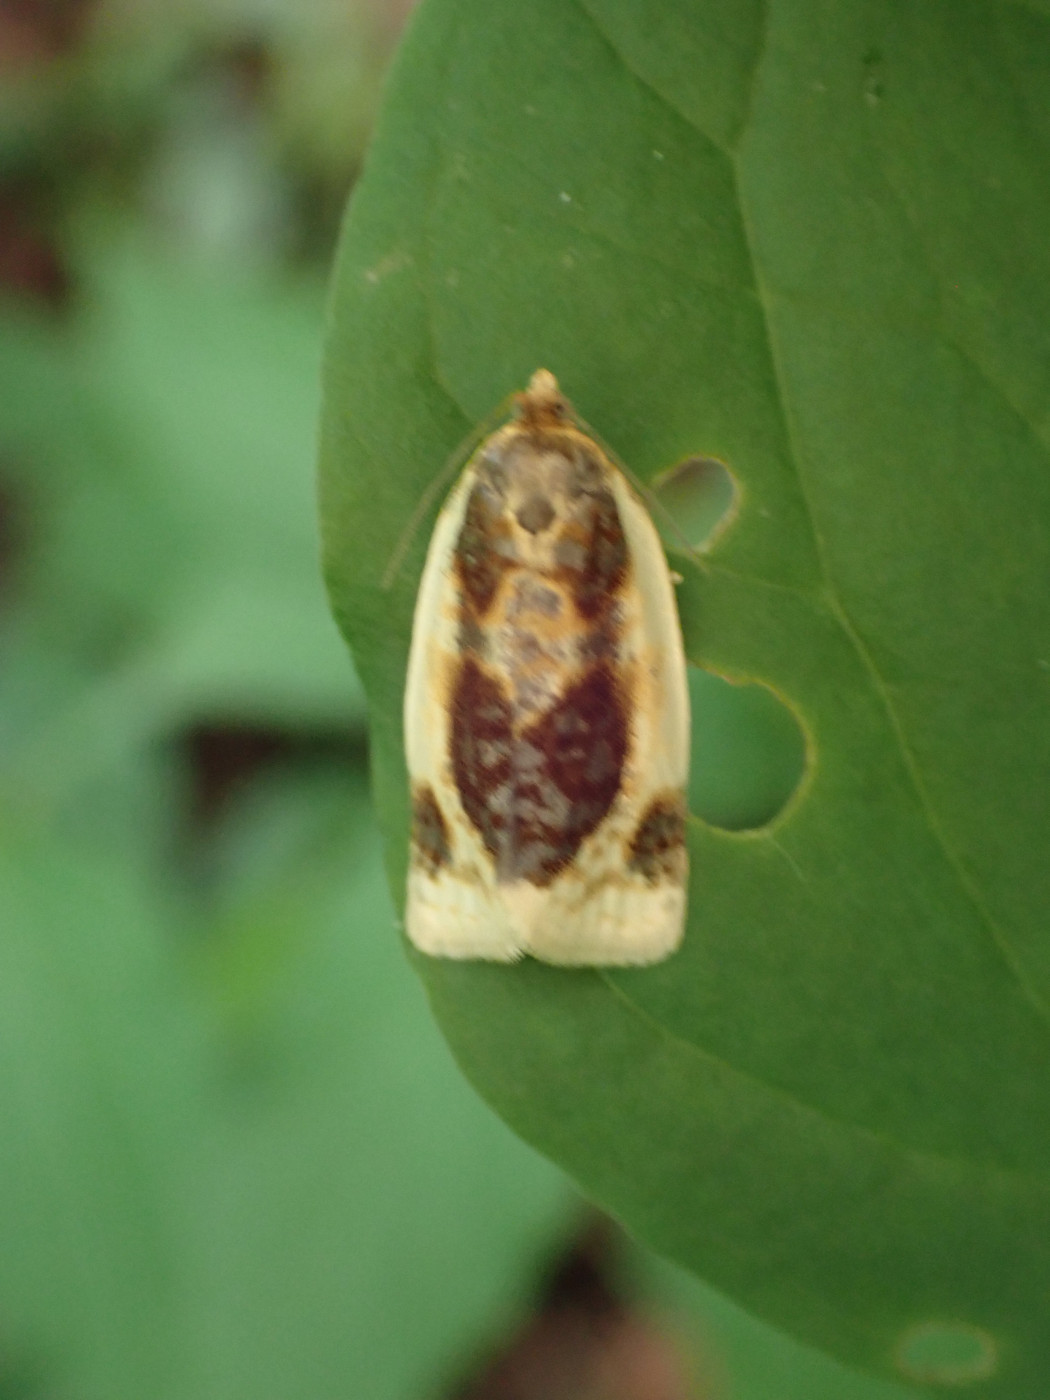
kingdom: Animalia
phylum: Arthropoda
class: Insecta
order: Lepidoptera
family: Tortricidae
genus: Clepsis
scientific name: Clepsis melaleucanus
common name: American apple tortrix
